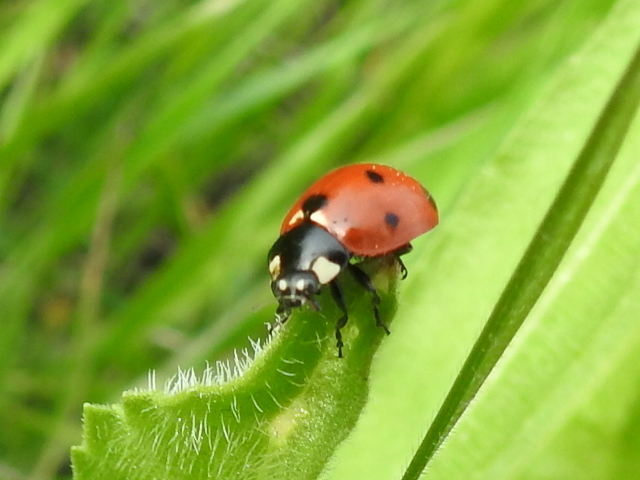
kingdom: Animalia
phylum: Arthropoda
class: Insecta
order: Coleoptera
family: Coccinellidae
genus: Coccinella
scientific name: Coccinella septempunctata
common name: Sevenspotted lady beetle
